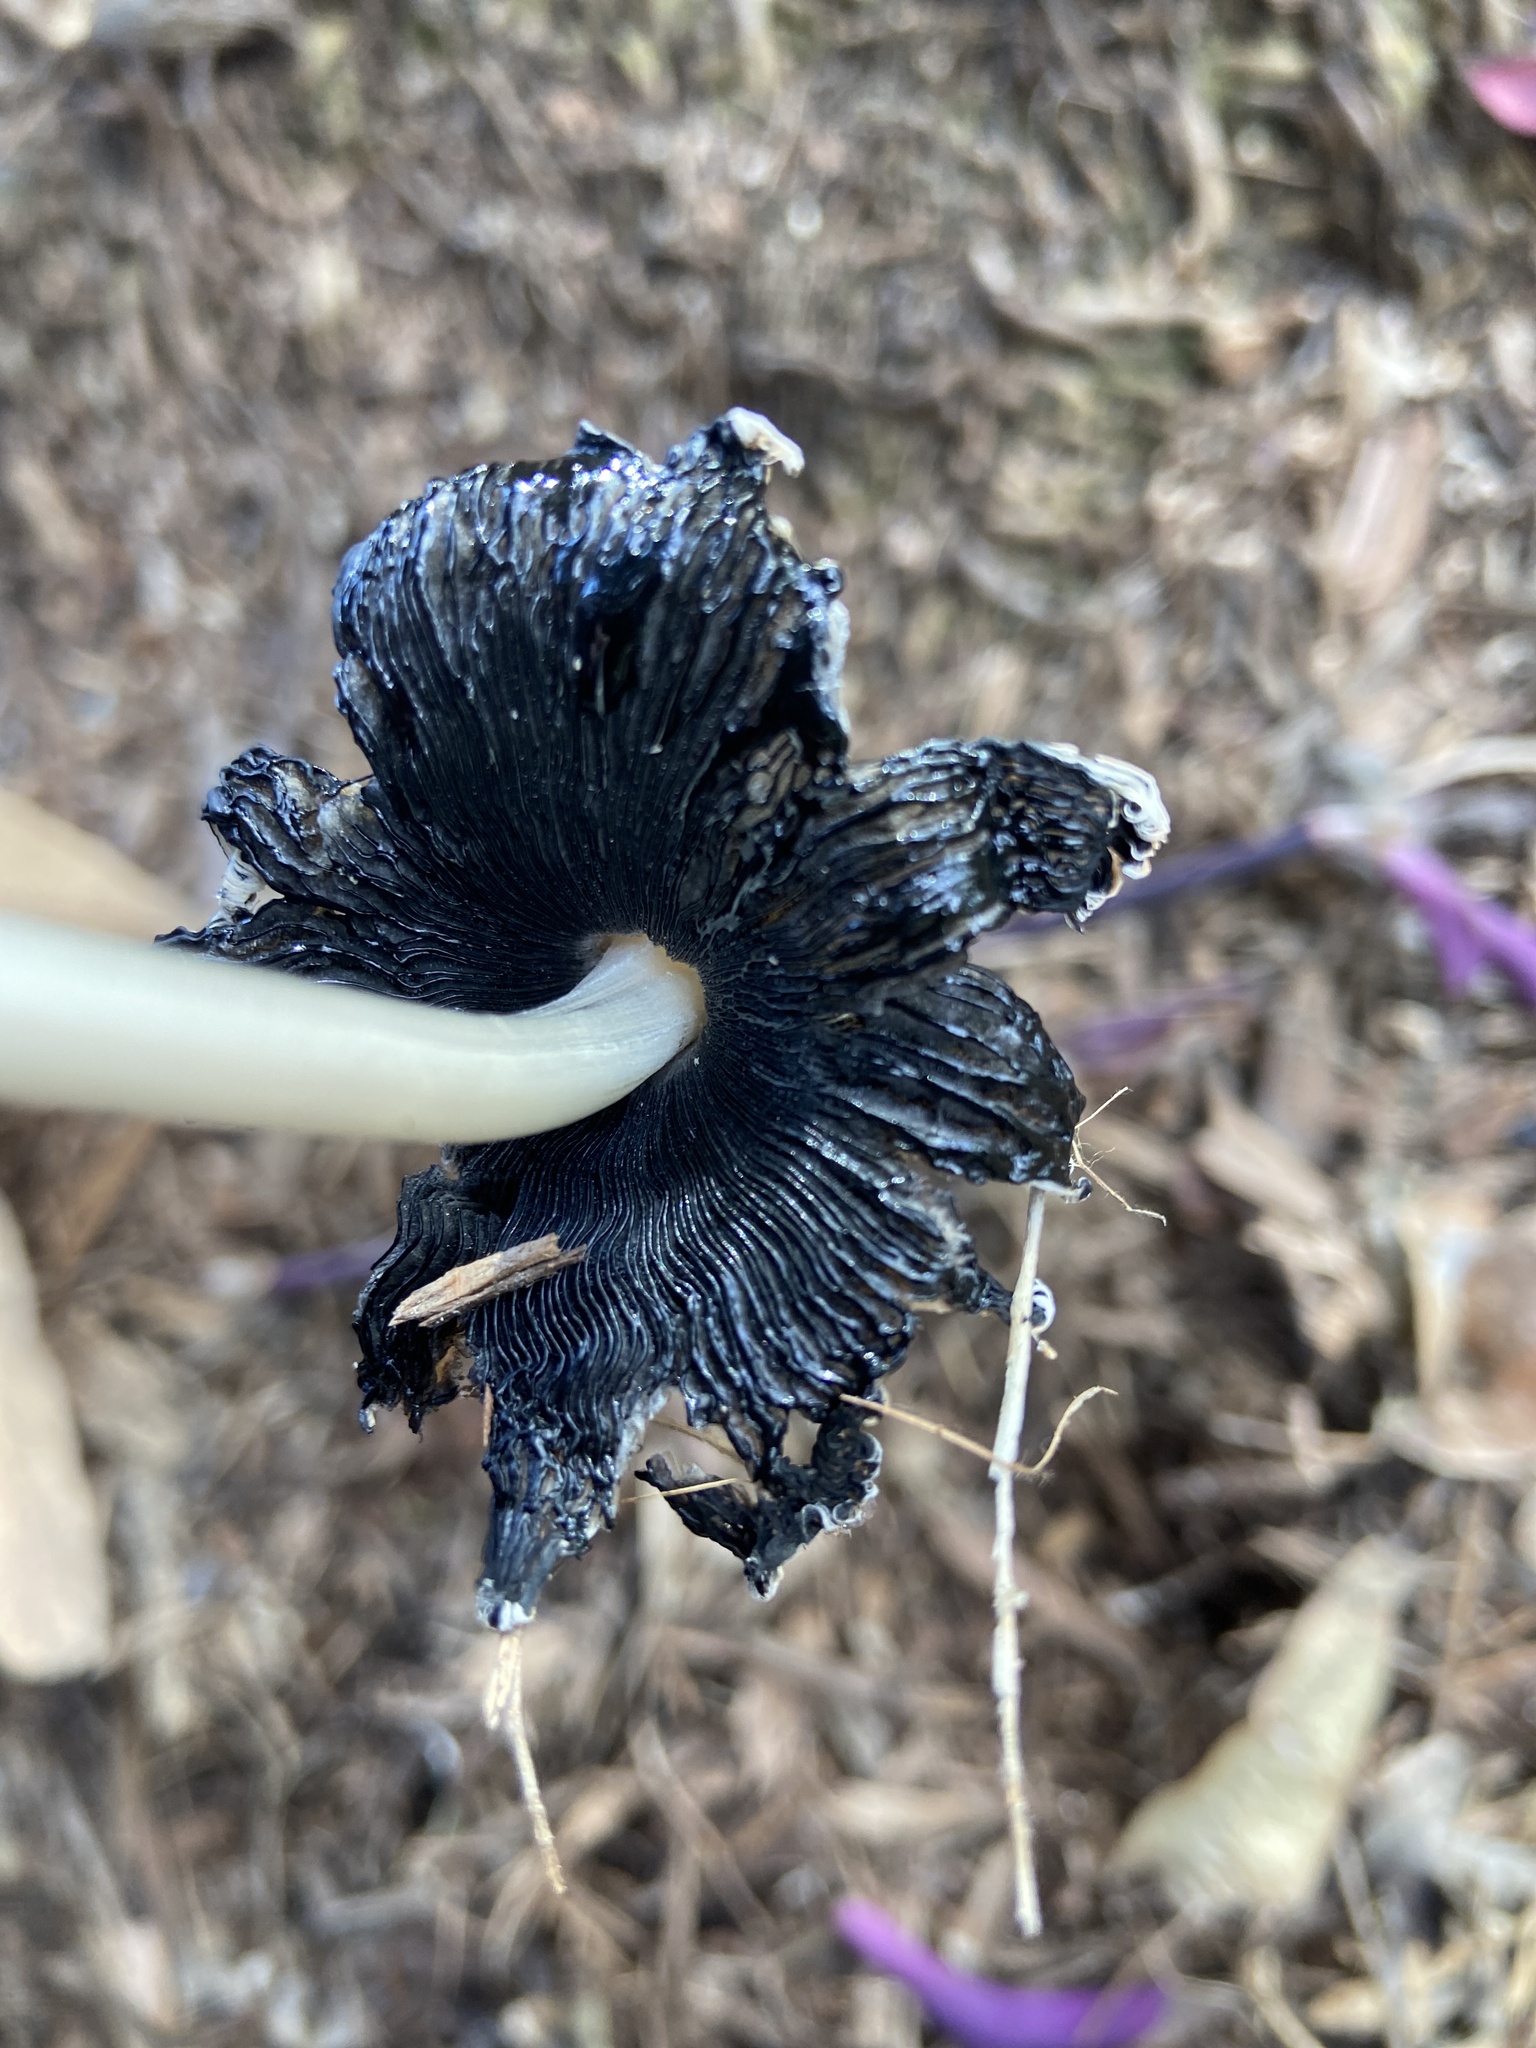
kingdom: Fungi
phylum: Basidiomycota
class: Agaricomycetes
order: Agaricales
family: Psathyrellaceae
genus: Coprinellus
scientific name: Coprinellus flocculosus
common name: Flocculose inkcap
